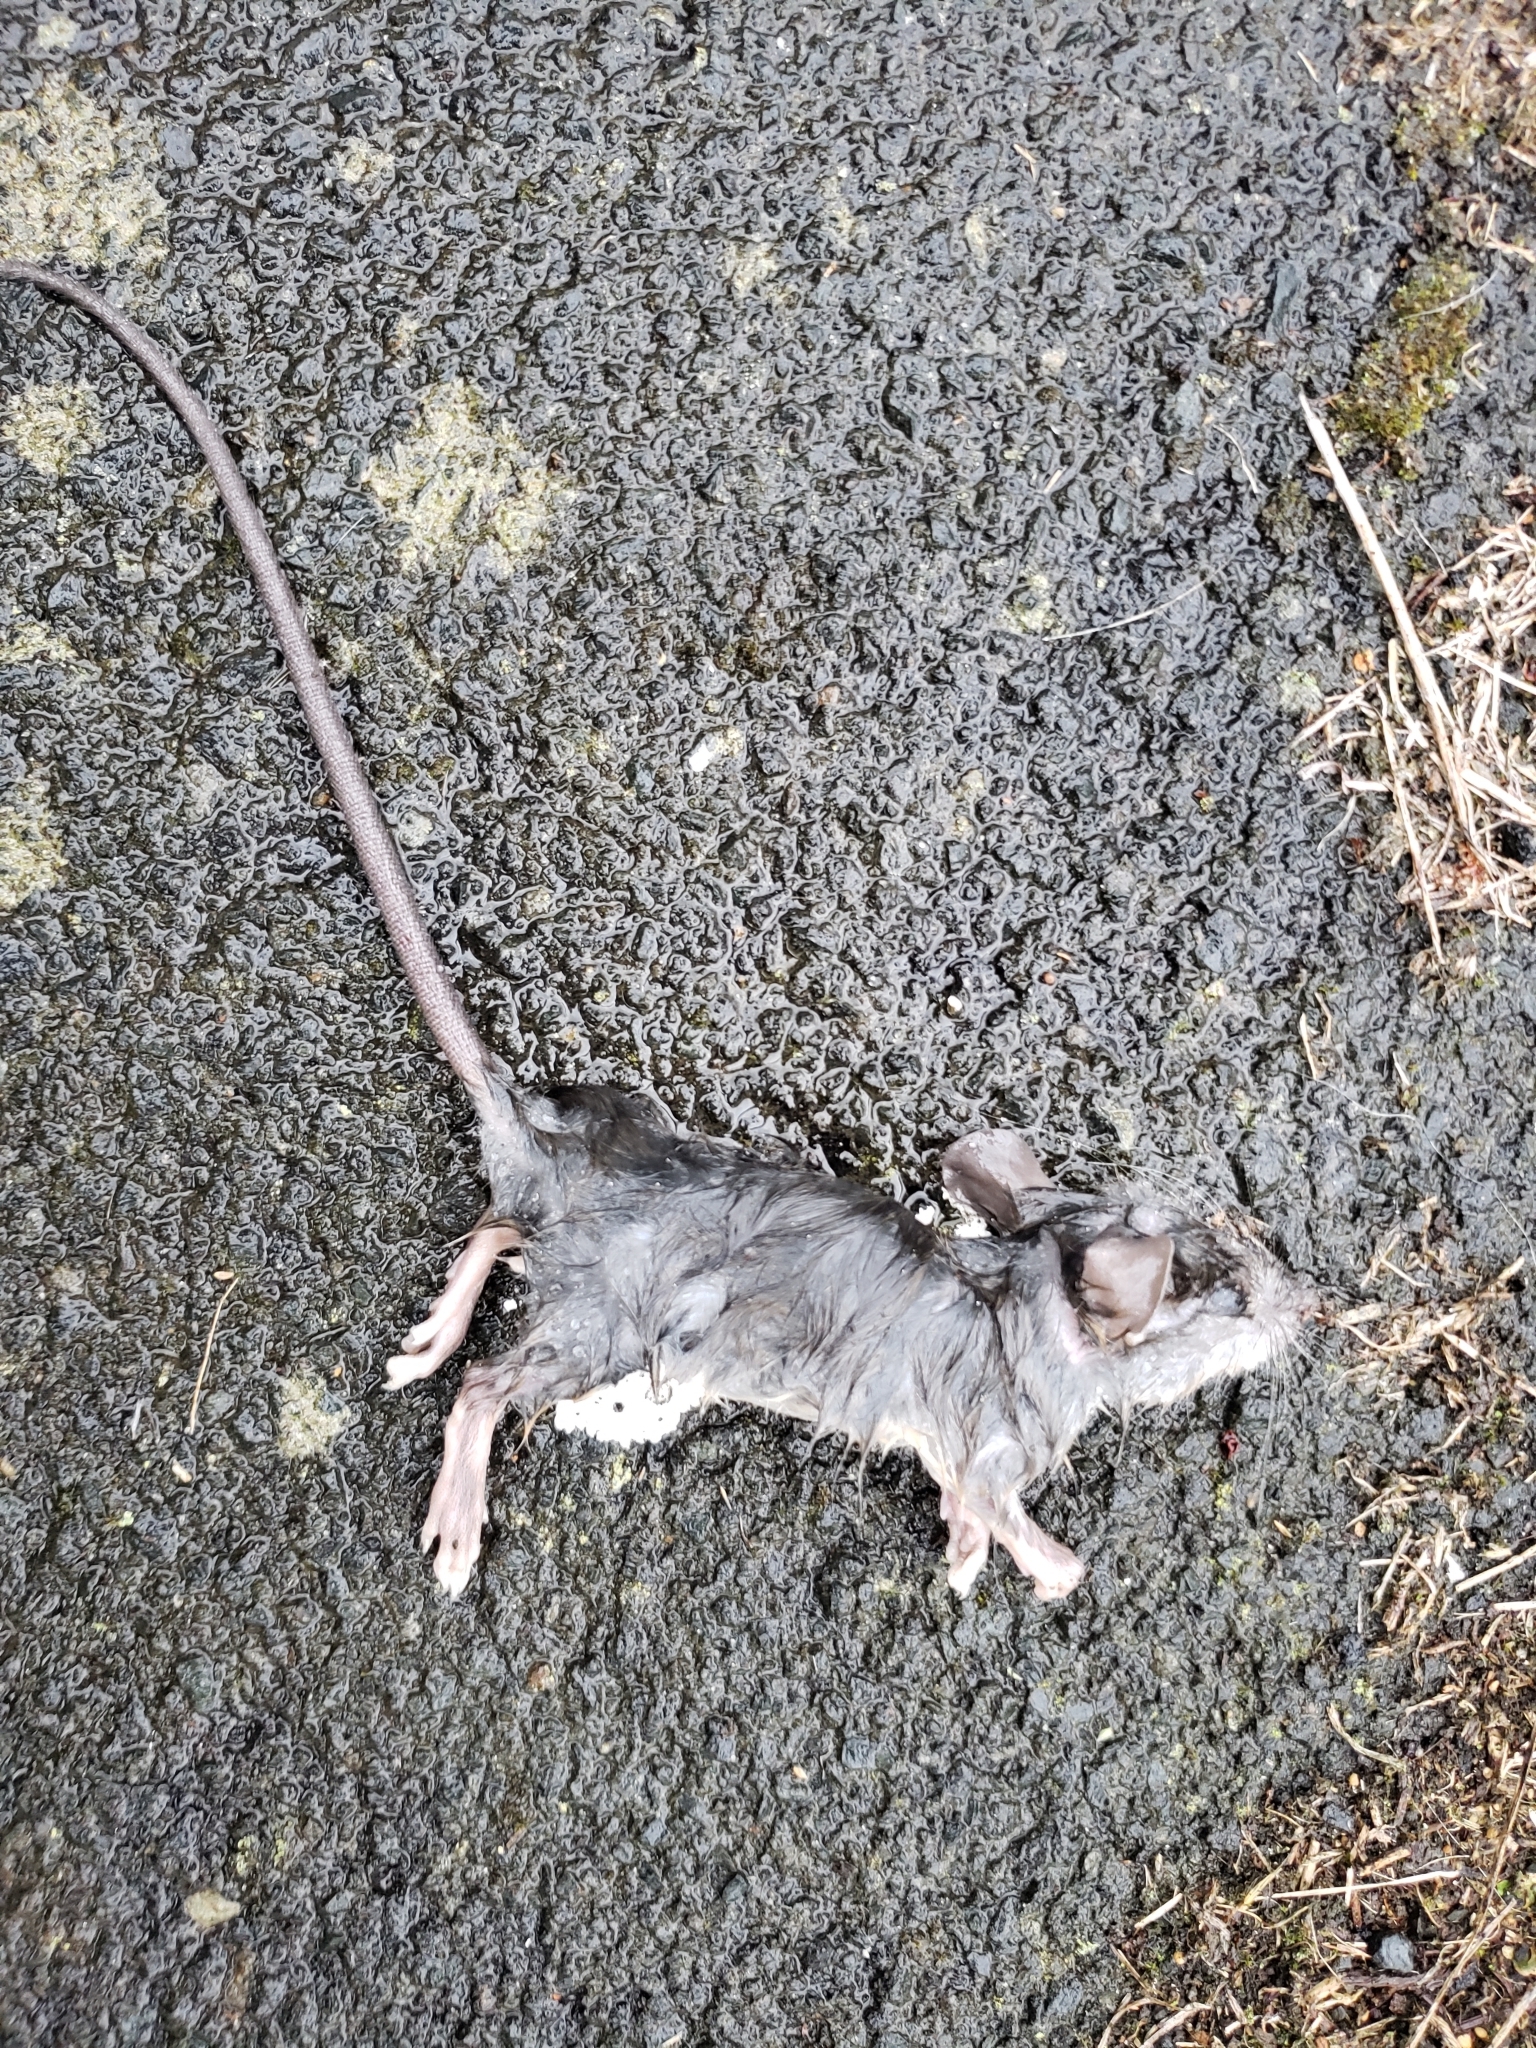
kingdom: Animalia
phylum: Chordata
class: Mammalia
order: Rodentia
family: Muridae
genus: Rattus
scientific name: Rattus rattus
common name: Black rat
